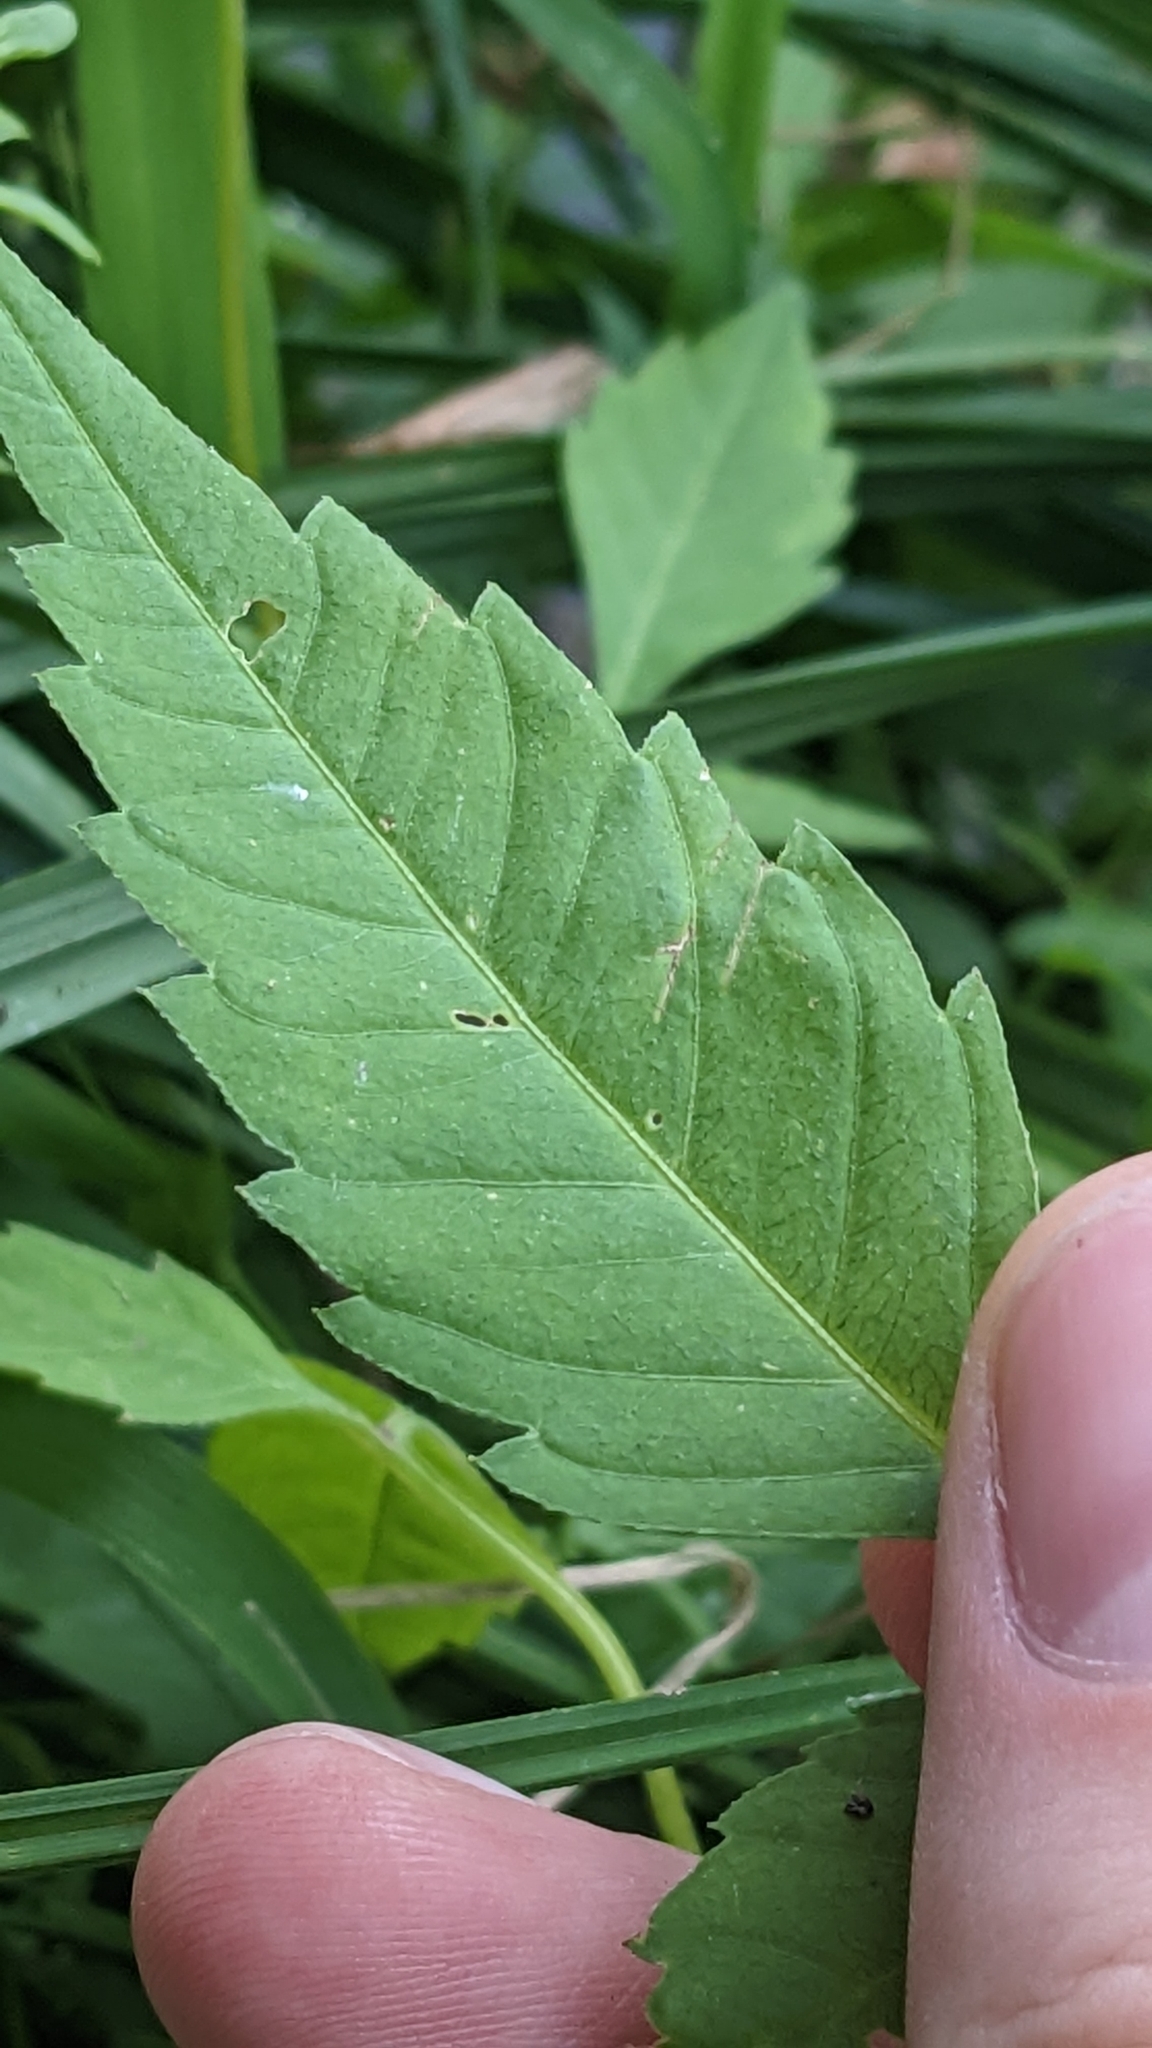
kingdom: Plantae
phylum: Tracheophyta
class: Magnoliopsida
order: Asterales
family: Asteraceae
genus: Bidens
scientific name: Bidens frondosa
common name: Beggarticks
